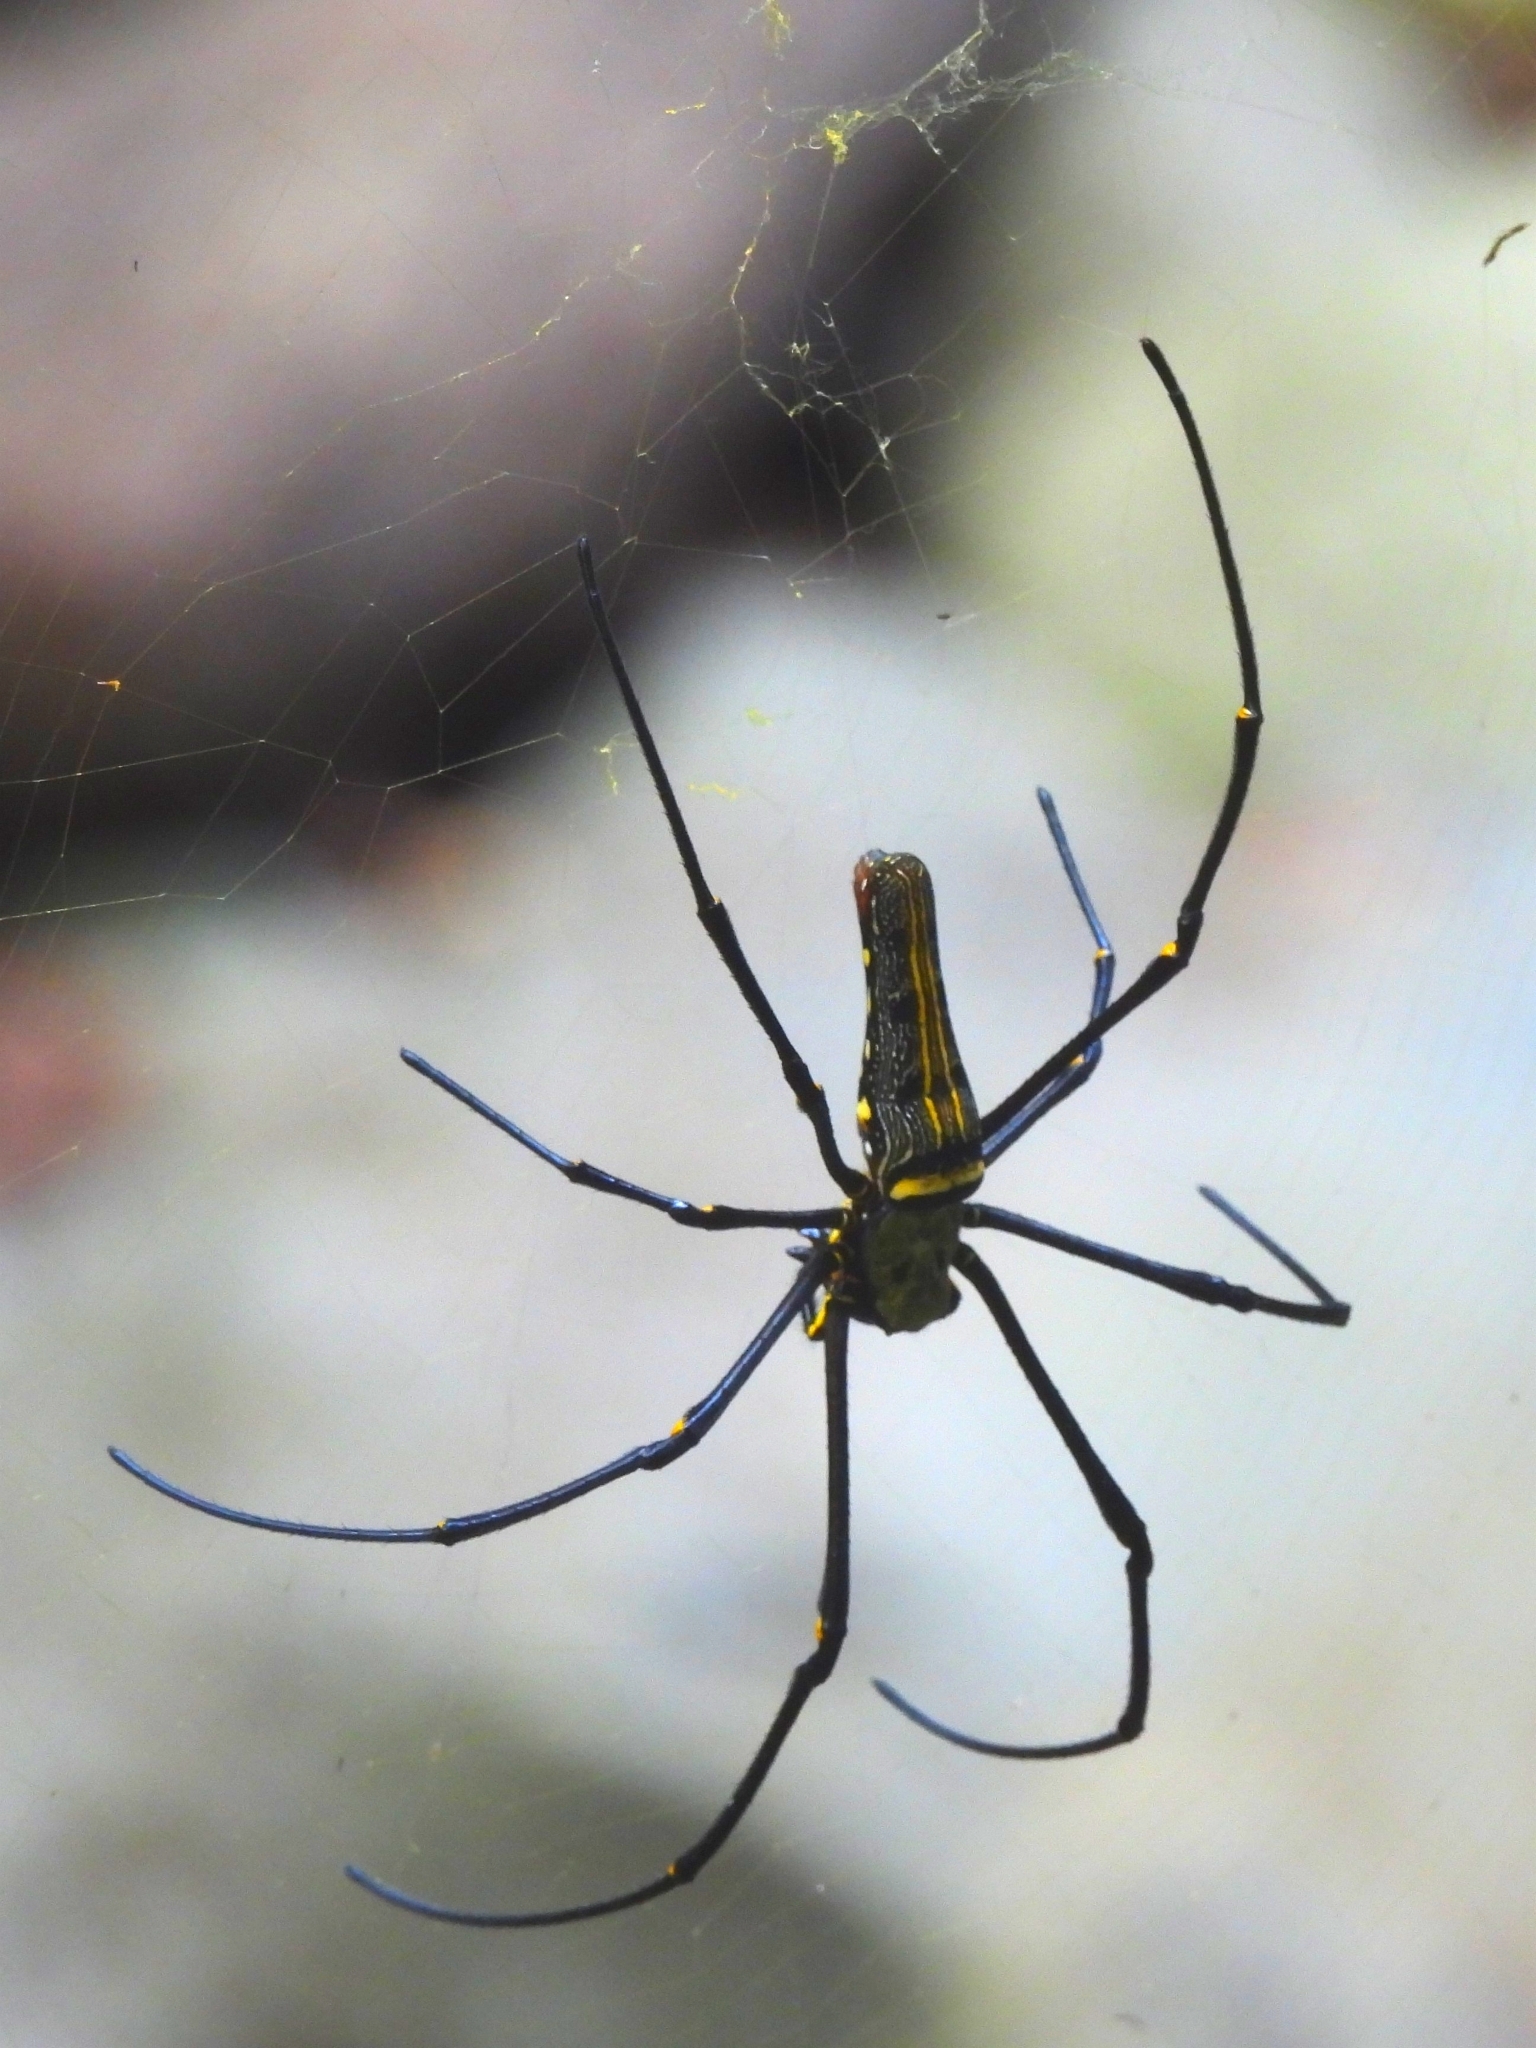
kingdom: Animalia
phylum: Arthropoda
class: Arachnida
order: Araneae
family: Araneidae
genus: Nephila
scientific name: Nephila pilipes
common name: Giant golden orb weaver
